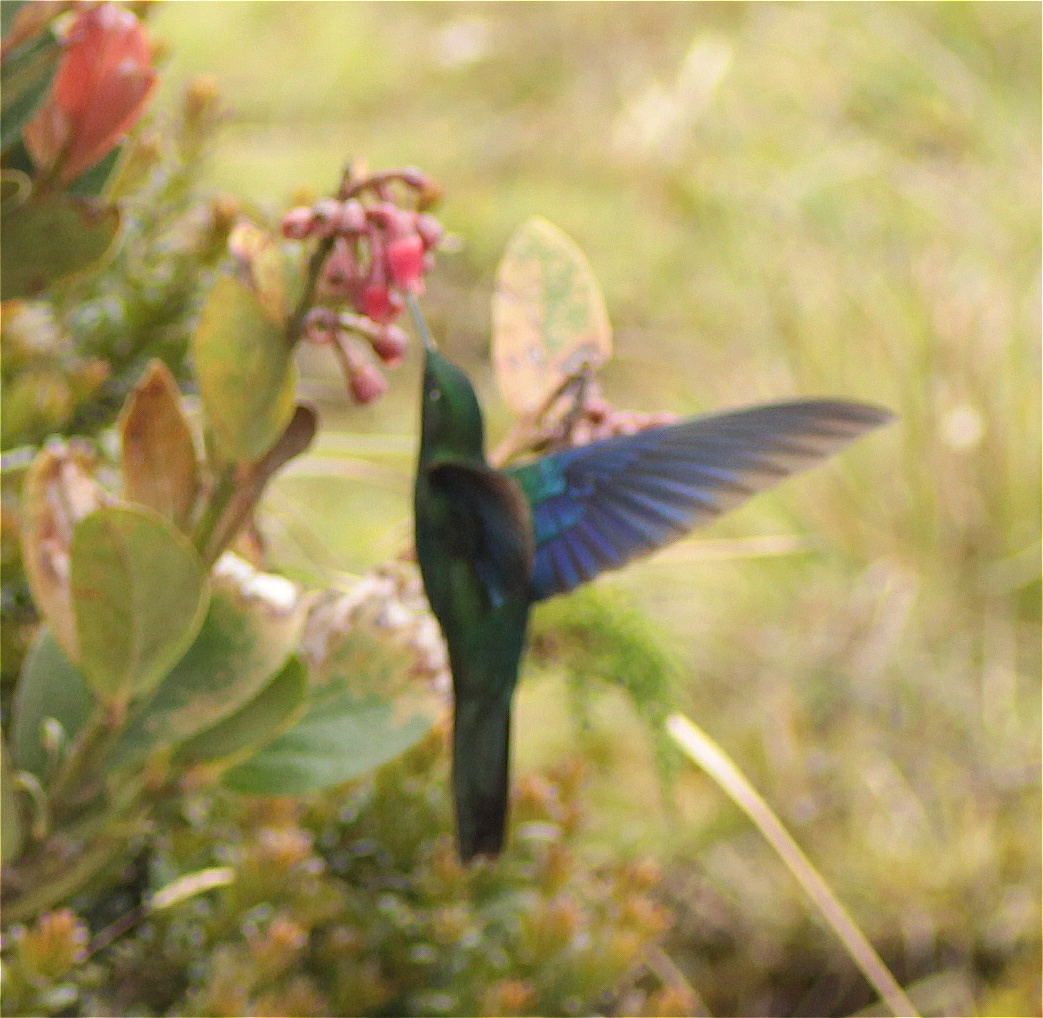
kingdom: Animalia
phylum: Chordata
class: Aves
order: Apodiformes
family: Trochilidae
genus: Pterophanes
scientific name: Pterophanes cyanopterus
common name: Great sapphirewing
